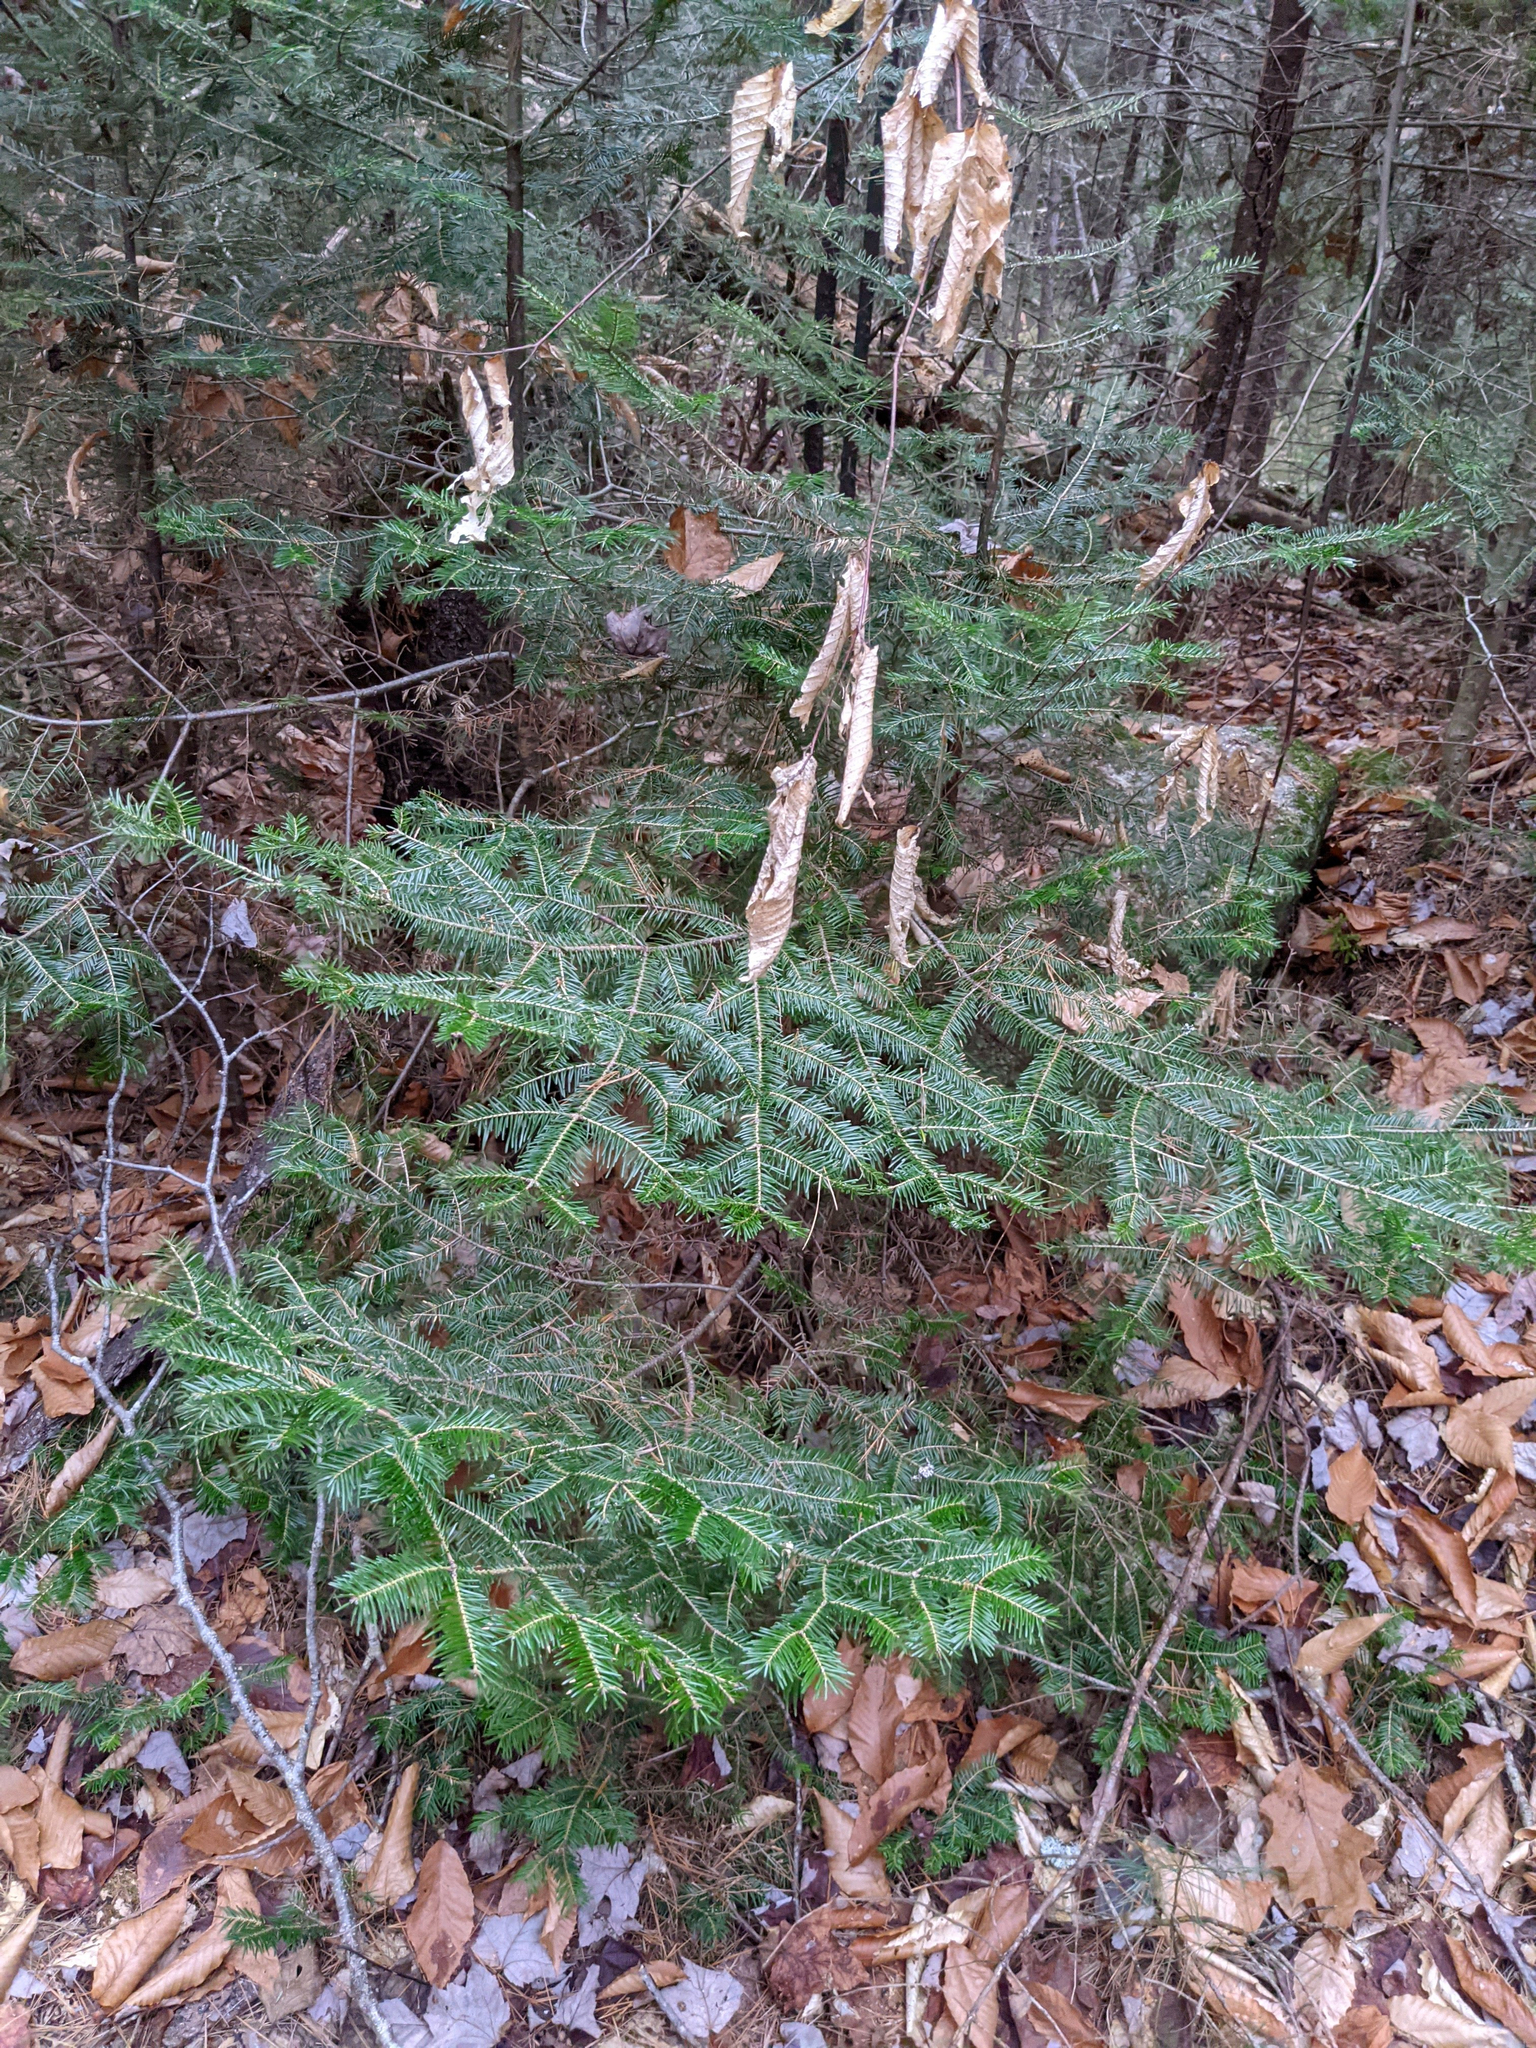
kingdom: Plantae
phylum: Tracheophyta
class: Pinopsida
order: Pinales
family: Pinaceae
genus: Abies
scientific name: Abies balsamea
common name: Balsam fir
